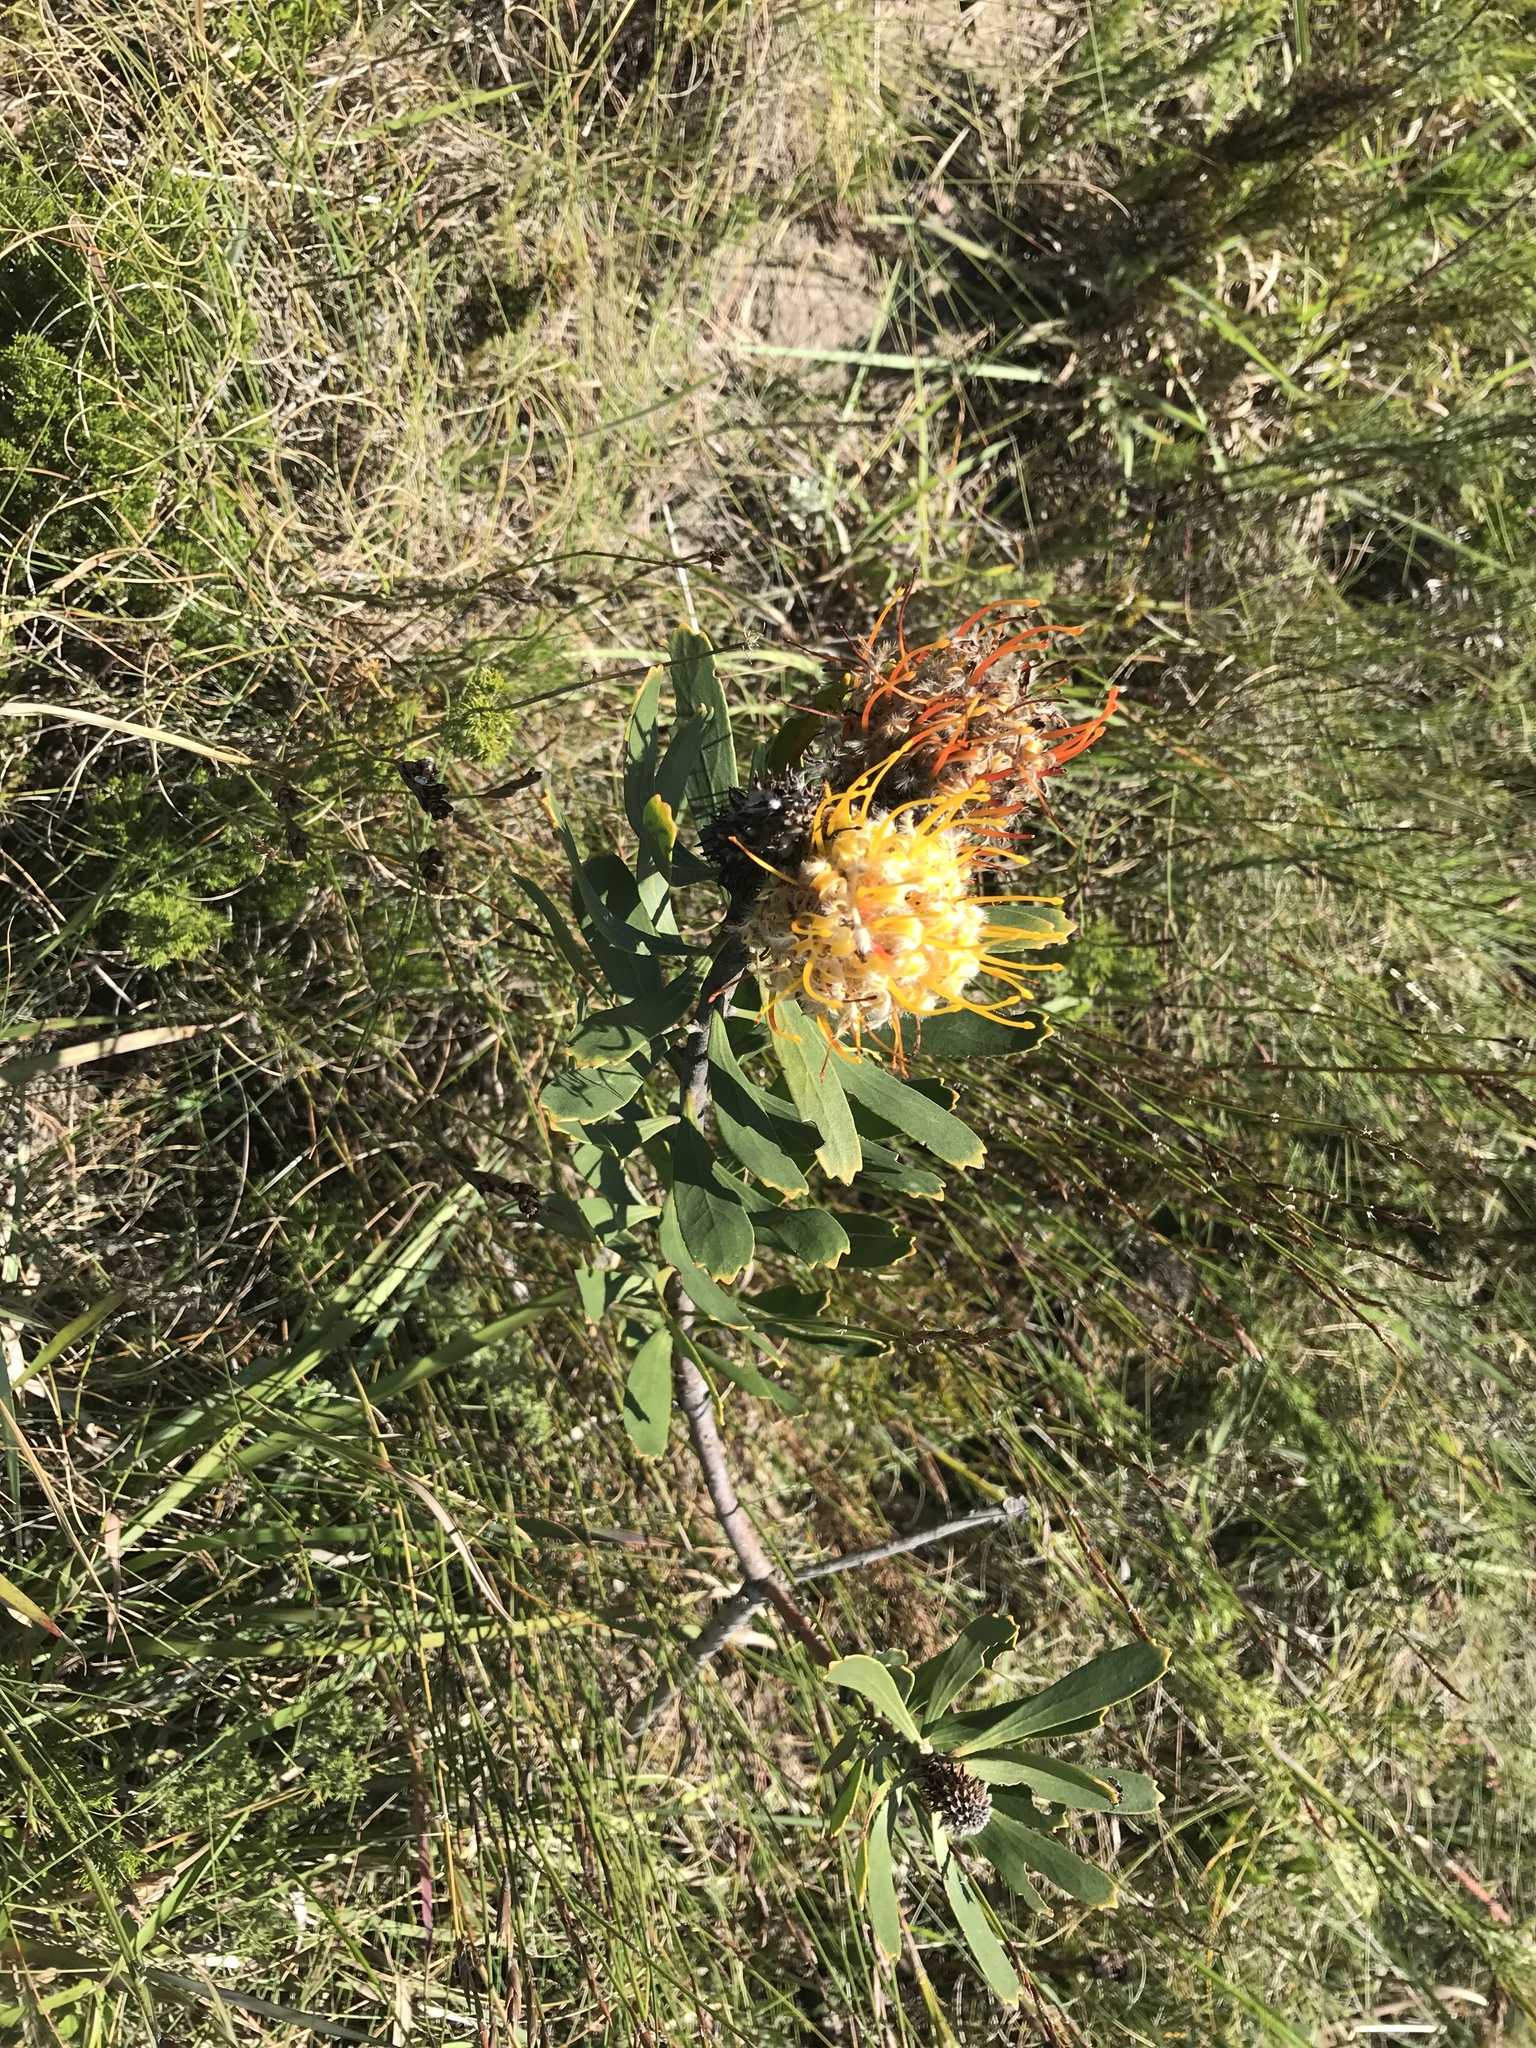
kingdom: Plantae
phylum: Tracheophyta
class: Magnoliopsida
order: Proteales
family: Proteaceae
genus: Leucospermum
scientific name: Leucospermum cuneiforme
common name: Common pincushion
